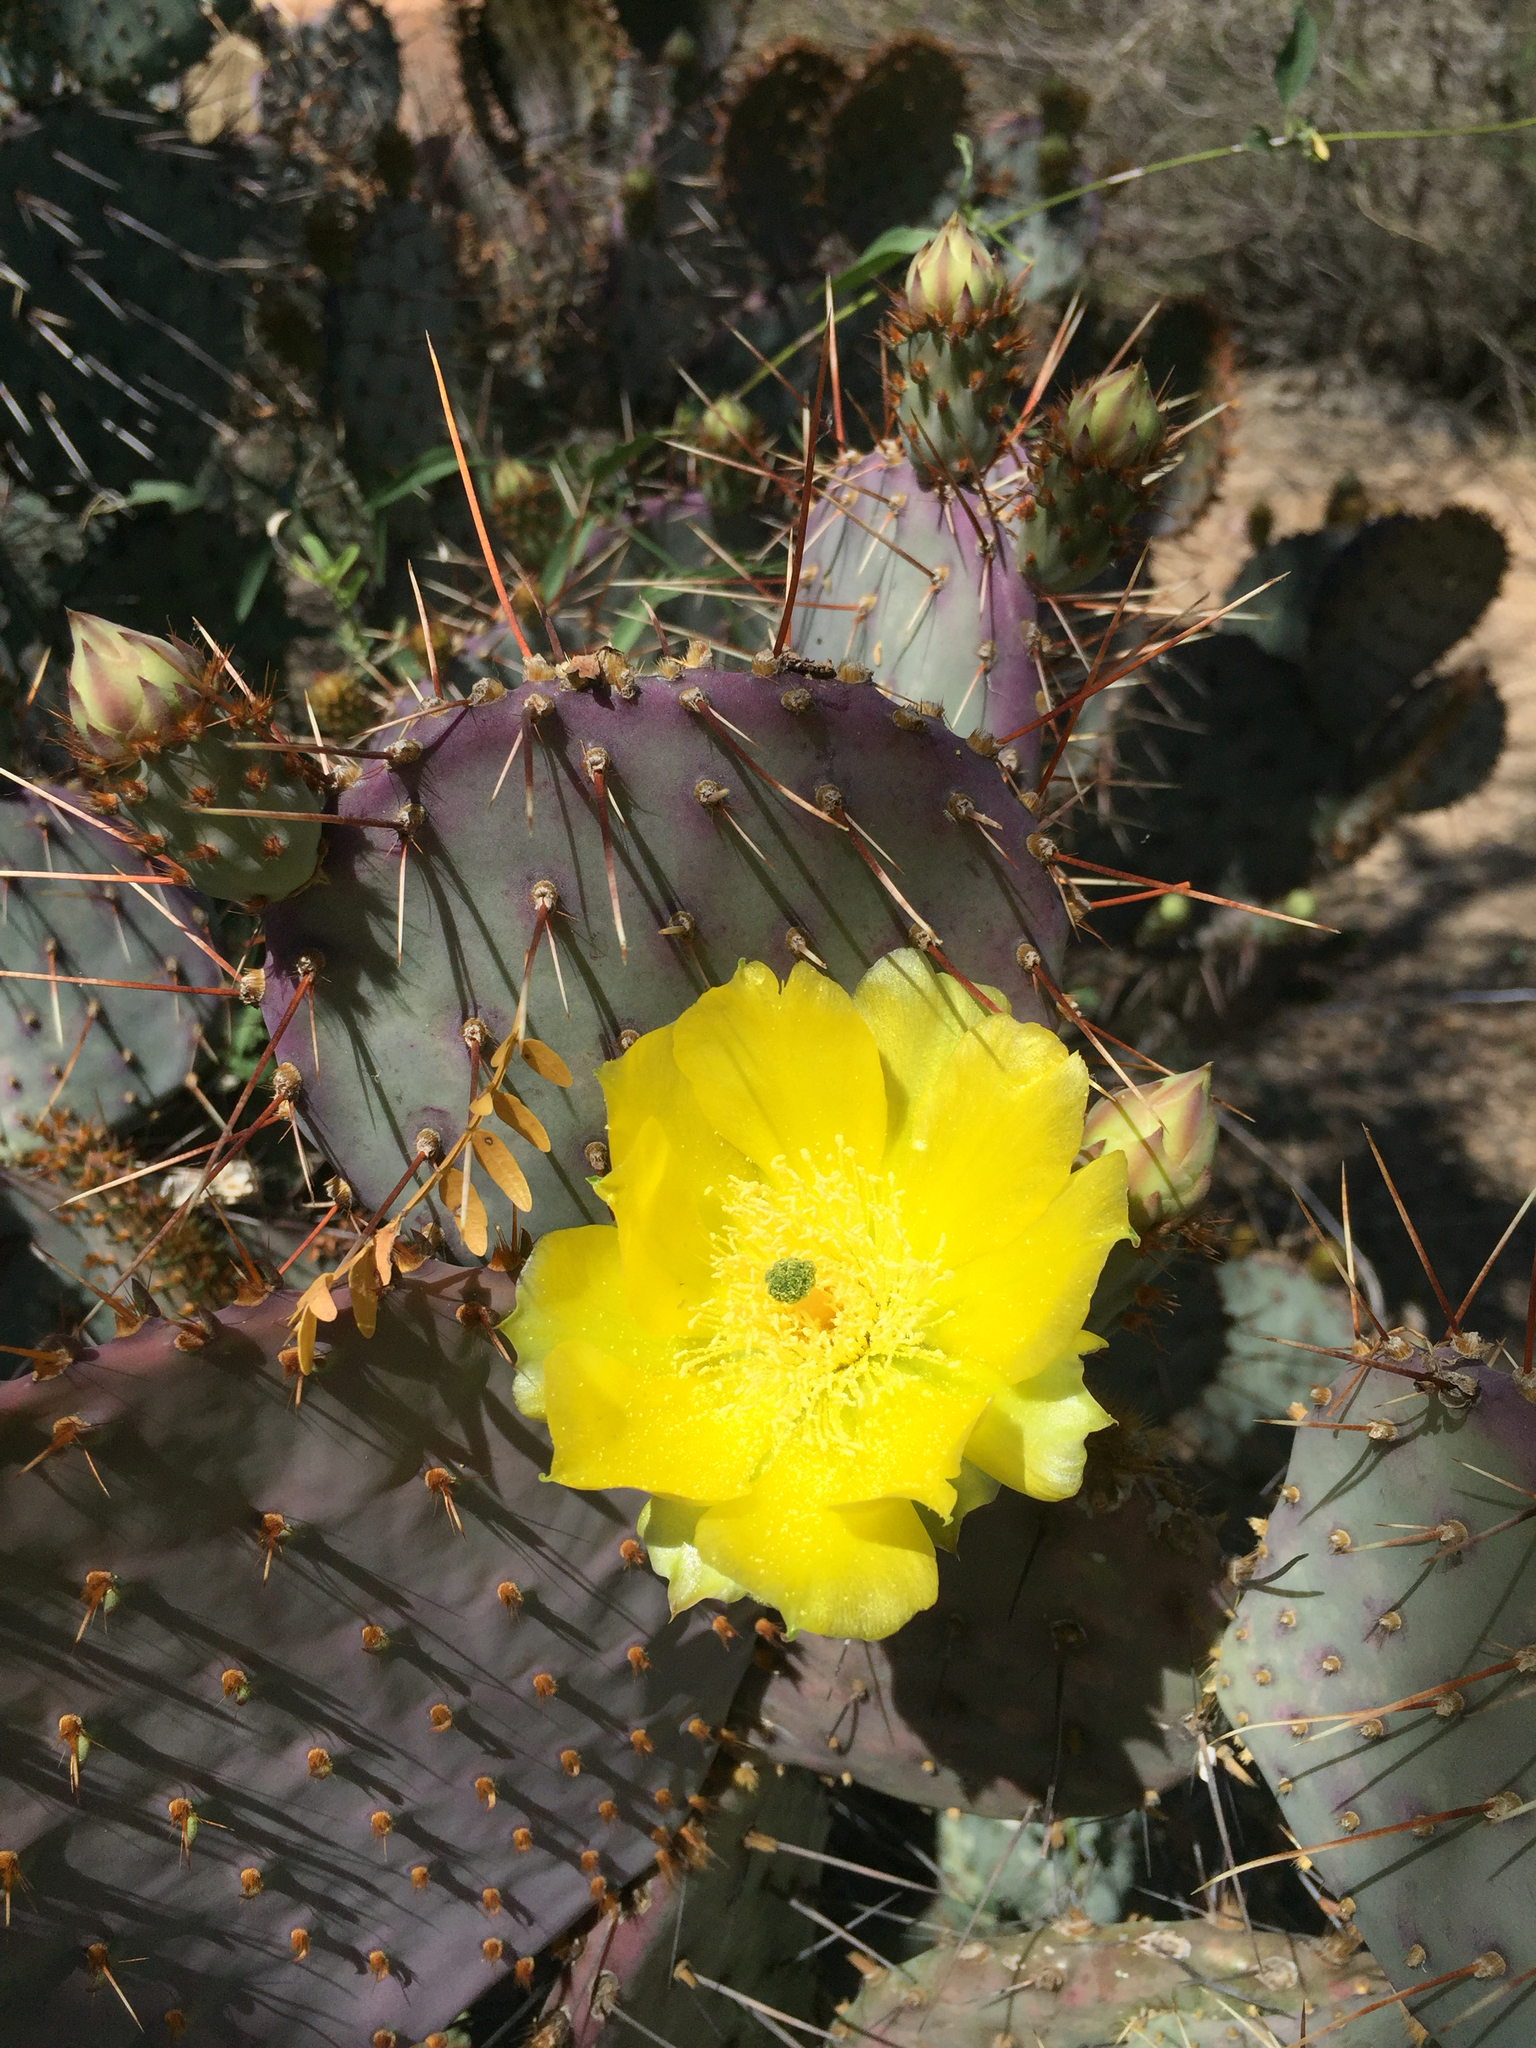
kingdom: Plantae
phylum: Tracheophyta
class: Magnoliopsida
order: Caryophyllales
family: Cactaceae
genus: Opuntia
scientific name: Opuntia gosseliniana
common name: Violet prickly-pear
